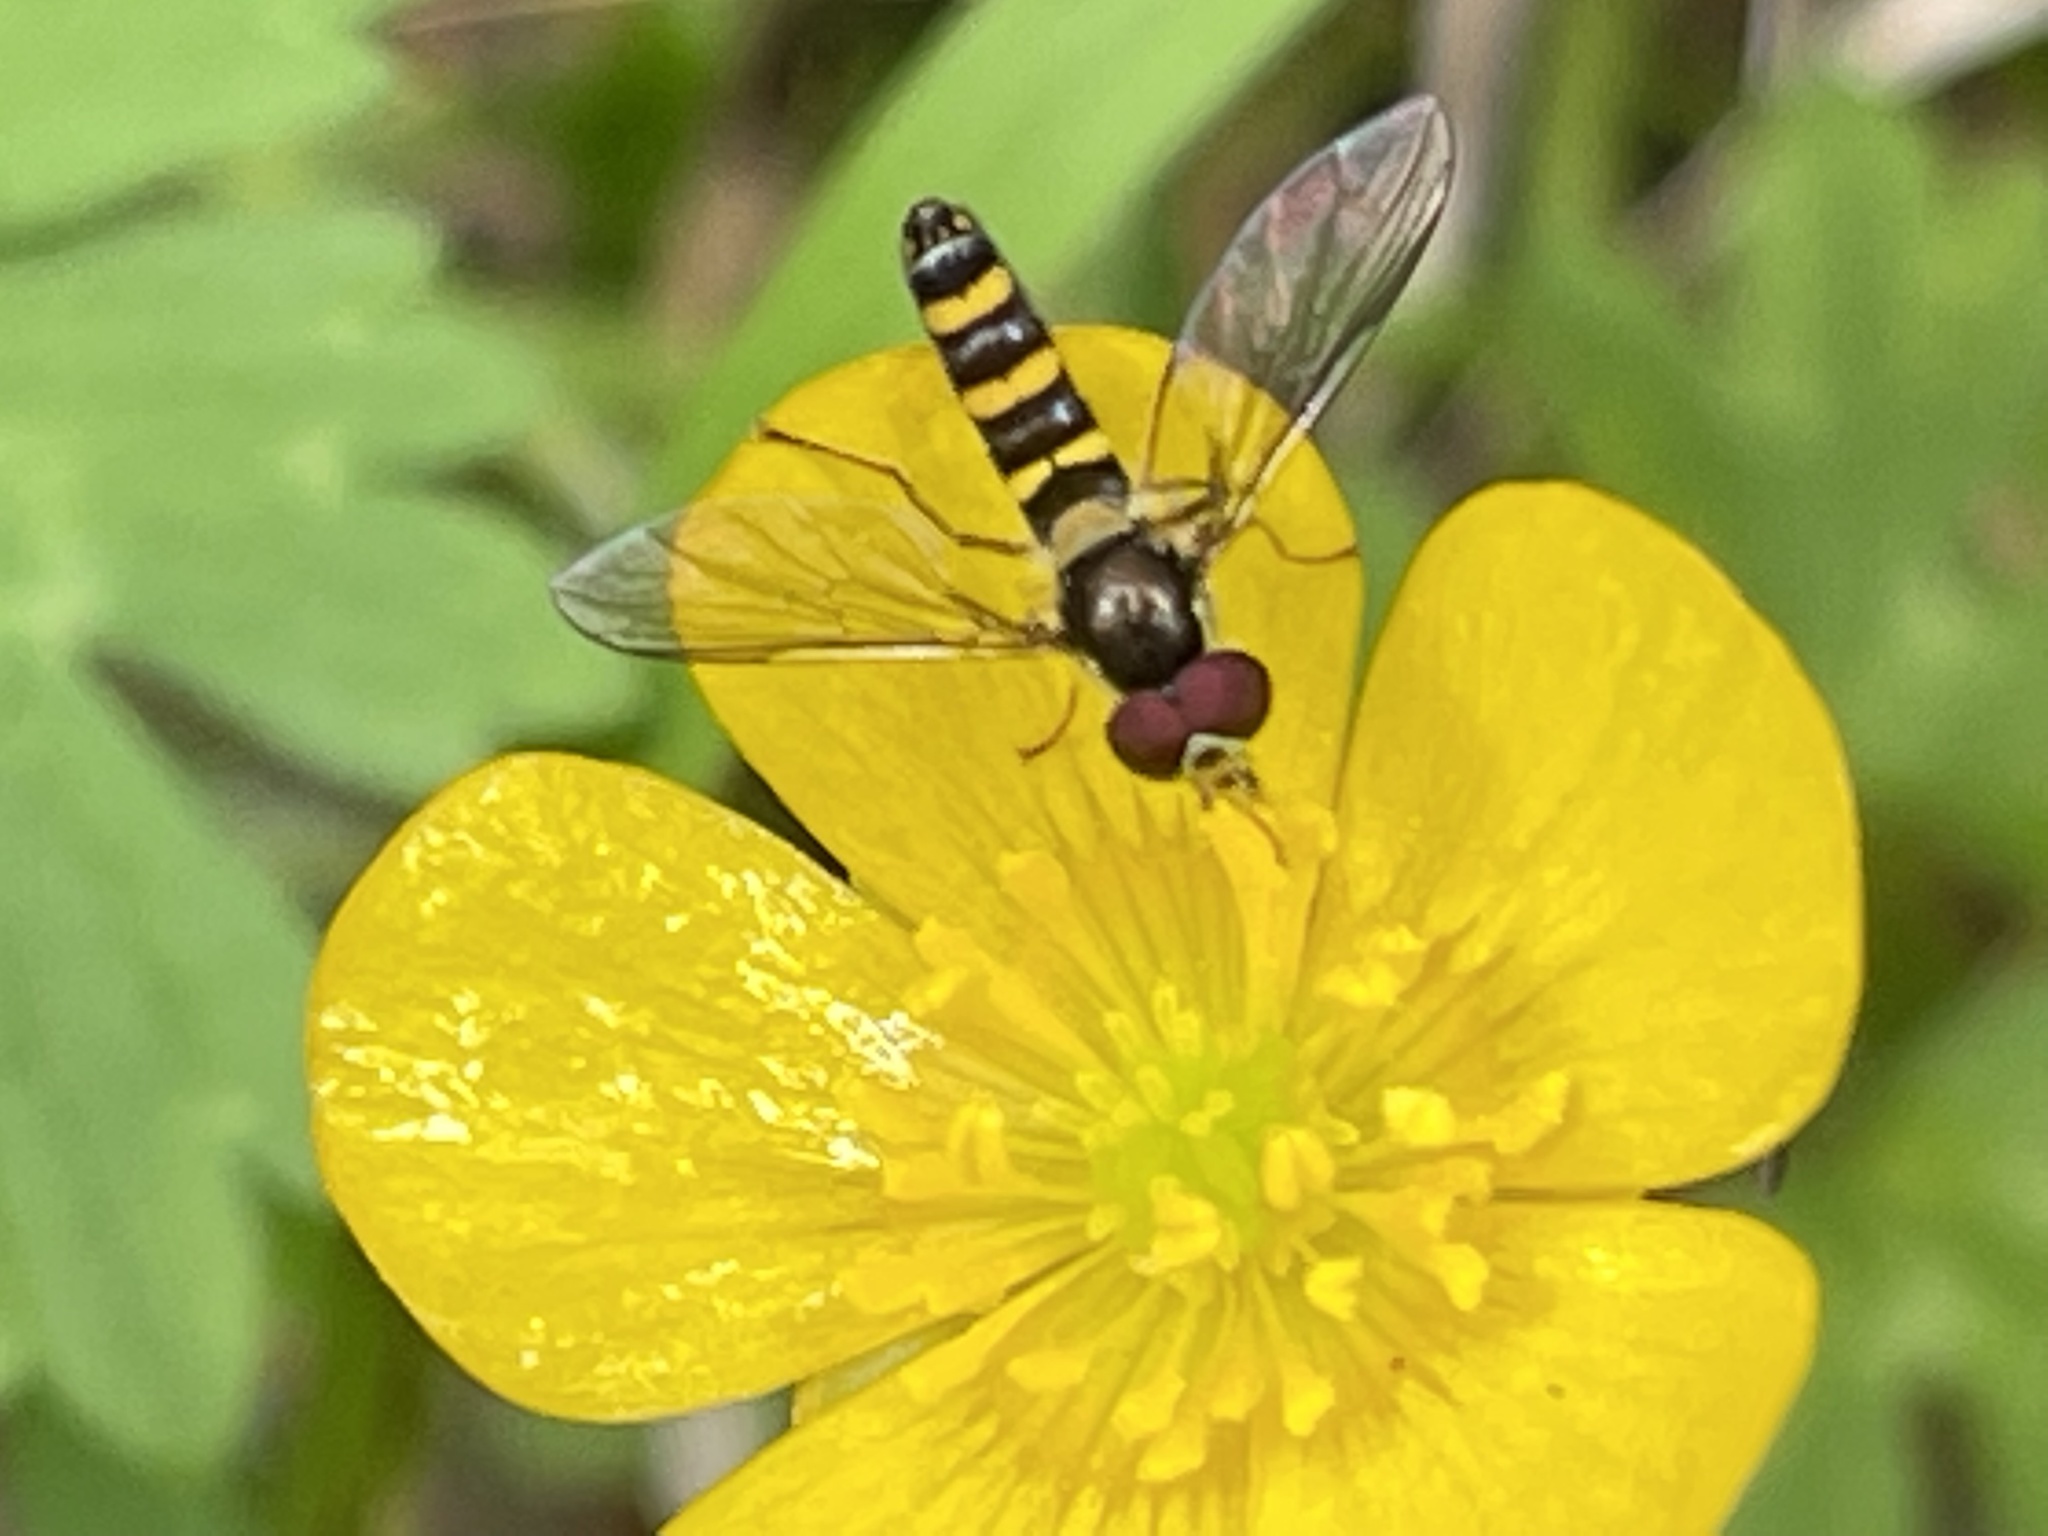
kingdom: Animalia
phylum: Arthropoda
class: Insecta
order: Diptera
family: Syrphidae
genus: Fazia
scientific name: Fazia micrura
